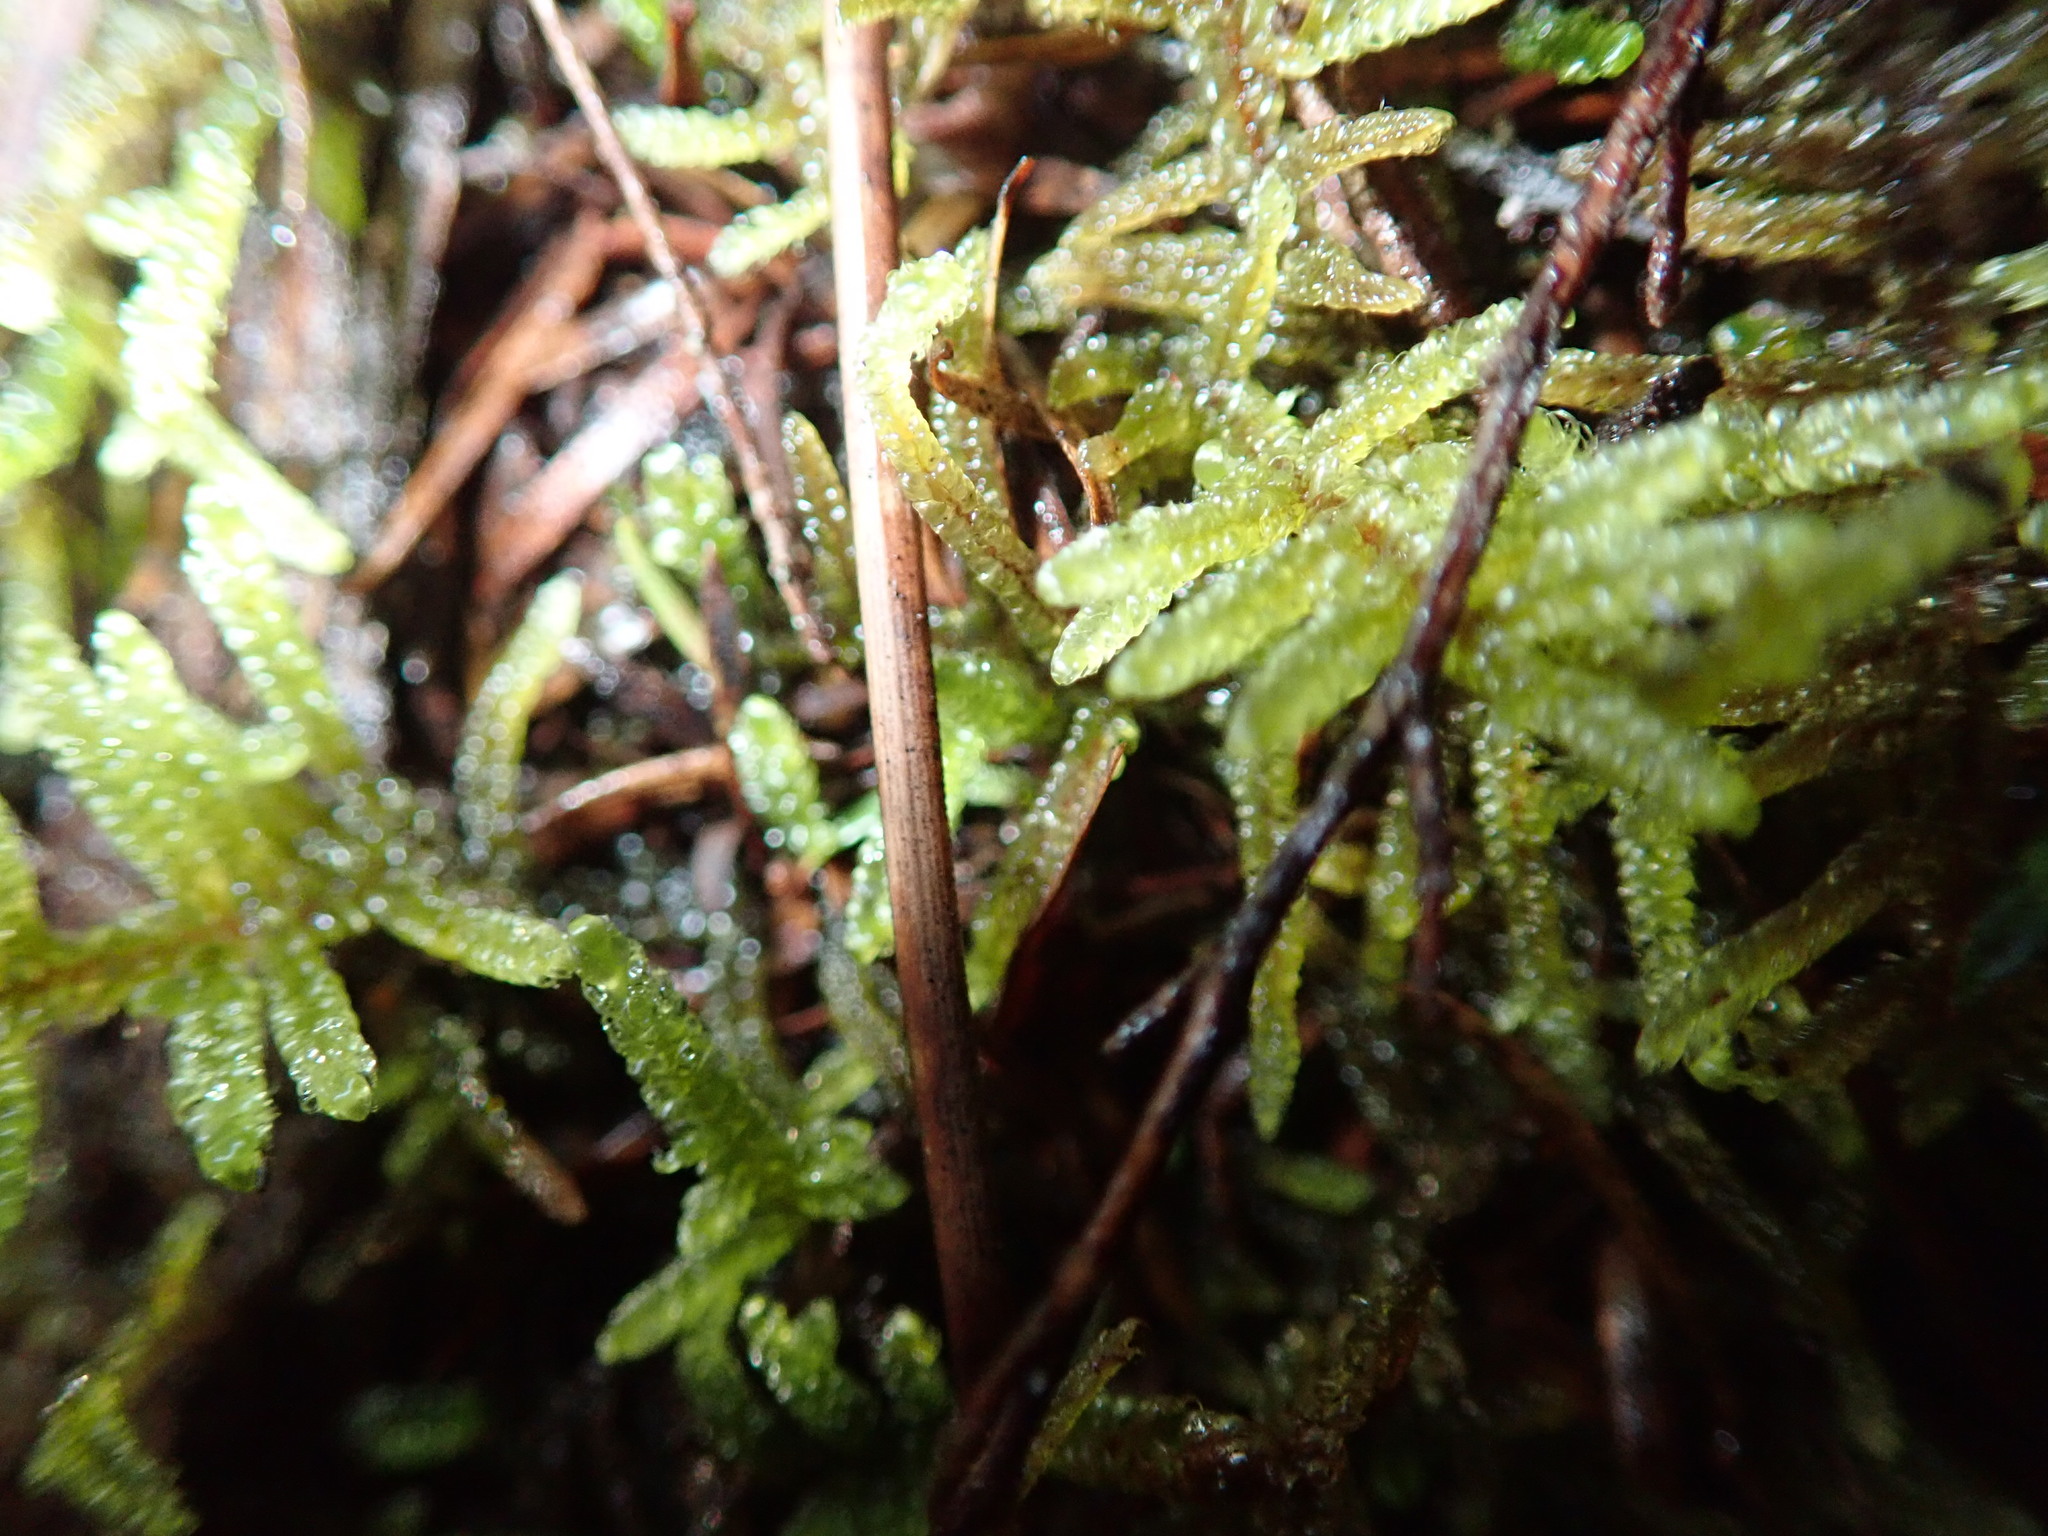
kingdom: Plantae
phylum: Bryophyta
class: Bryopsida
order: Hypnales
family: Brachytheciaceae
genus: Pseudoscleropodium
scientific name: Pseudoscleropodium purum
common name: Neat feather-moss
